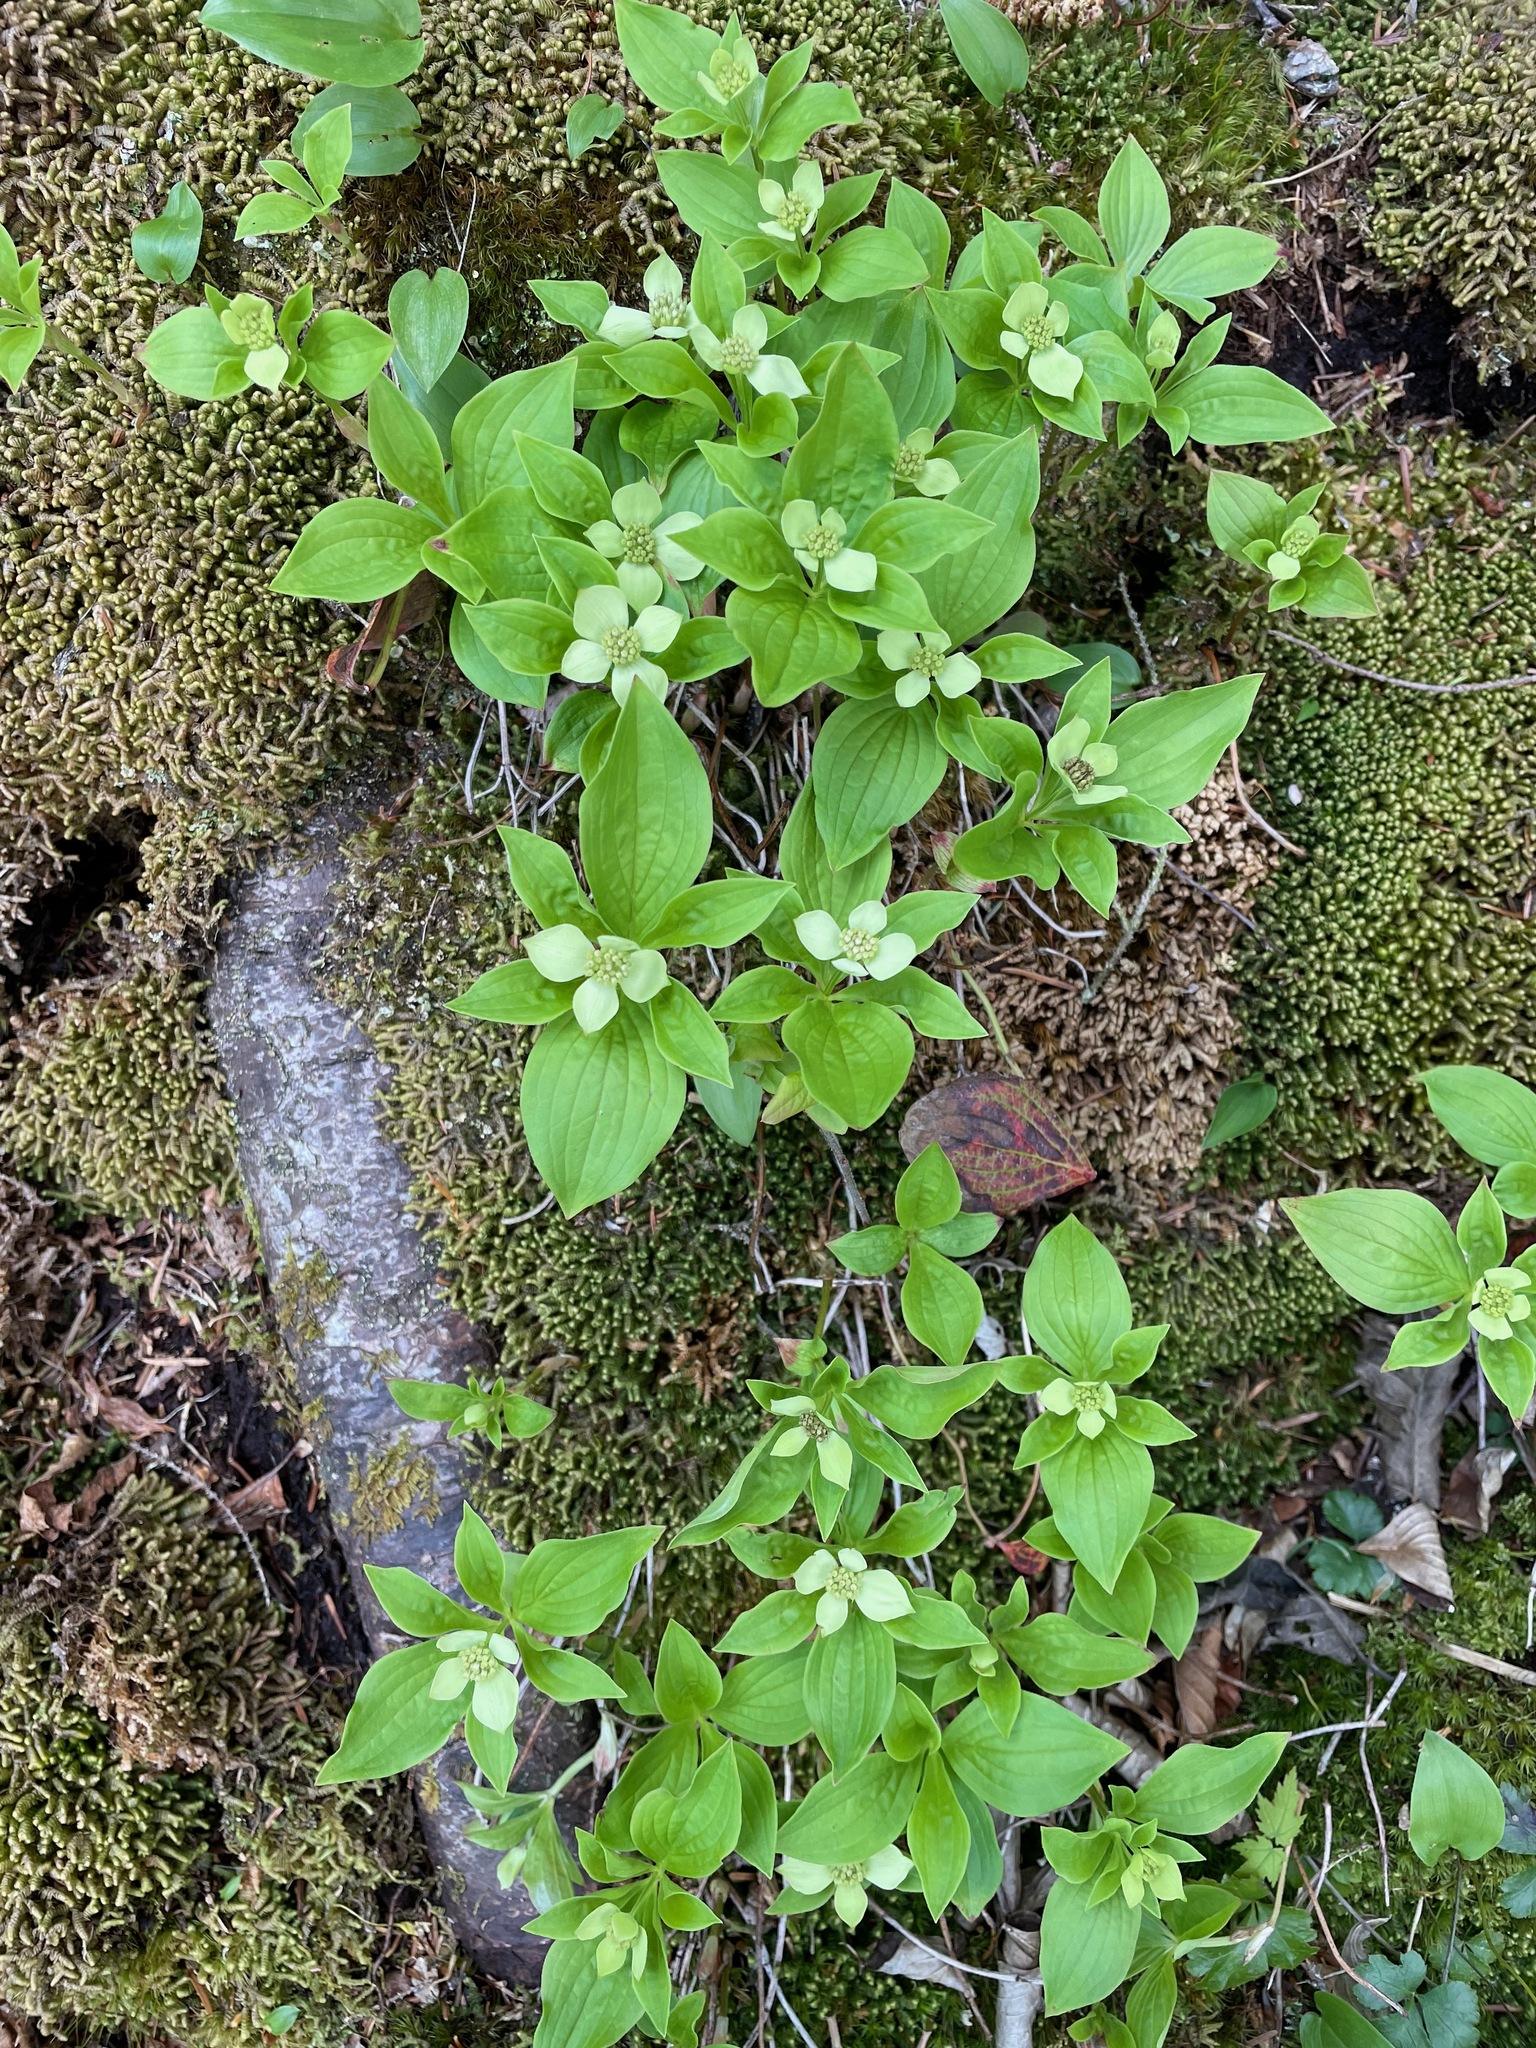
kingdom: Plantae
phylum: Tracheophyta
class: Magnoliopsida
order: Cornales
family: Cornaceae
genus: Cornus
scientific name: Cornus canadensis
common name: Creeping dogwood
